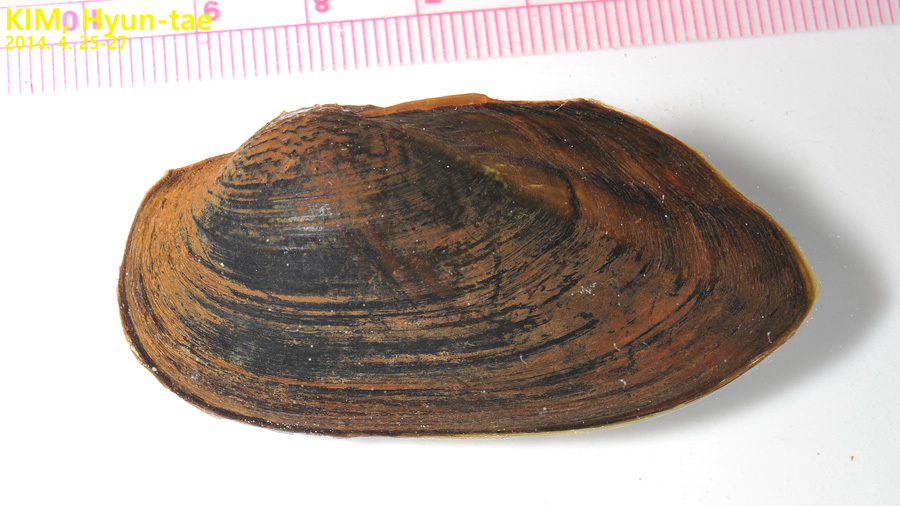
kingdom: Animalia
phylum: Mollusca
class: Bivalvia
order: Unionida
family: Unionidae
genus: Nodularia
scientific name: Nodularia breviconcha
